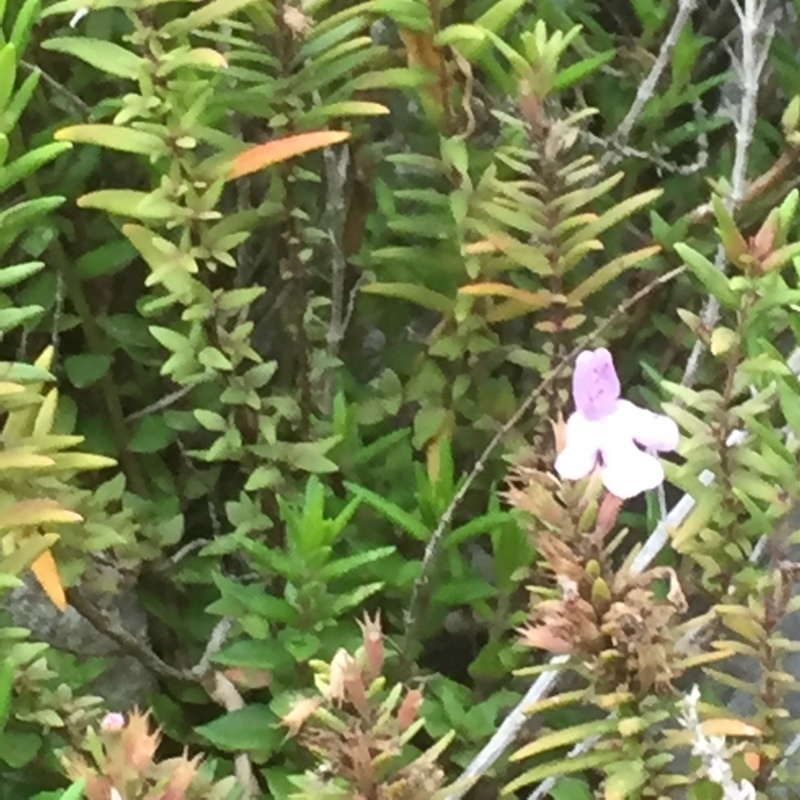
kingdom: Plantae
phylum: Tracheophyta
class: Magnoliopsida
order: Lamiales
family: Lamiaceae
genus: Micromeria
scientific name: Micromeria graeca
